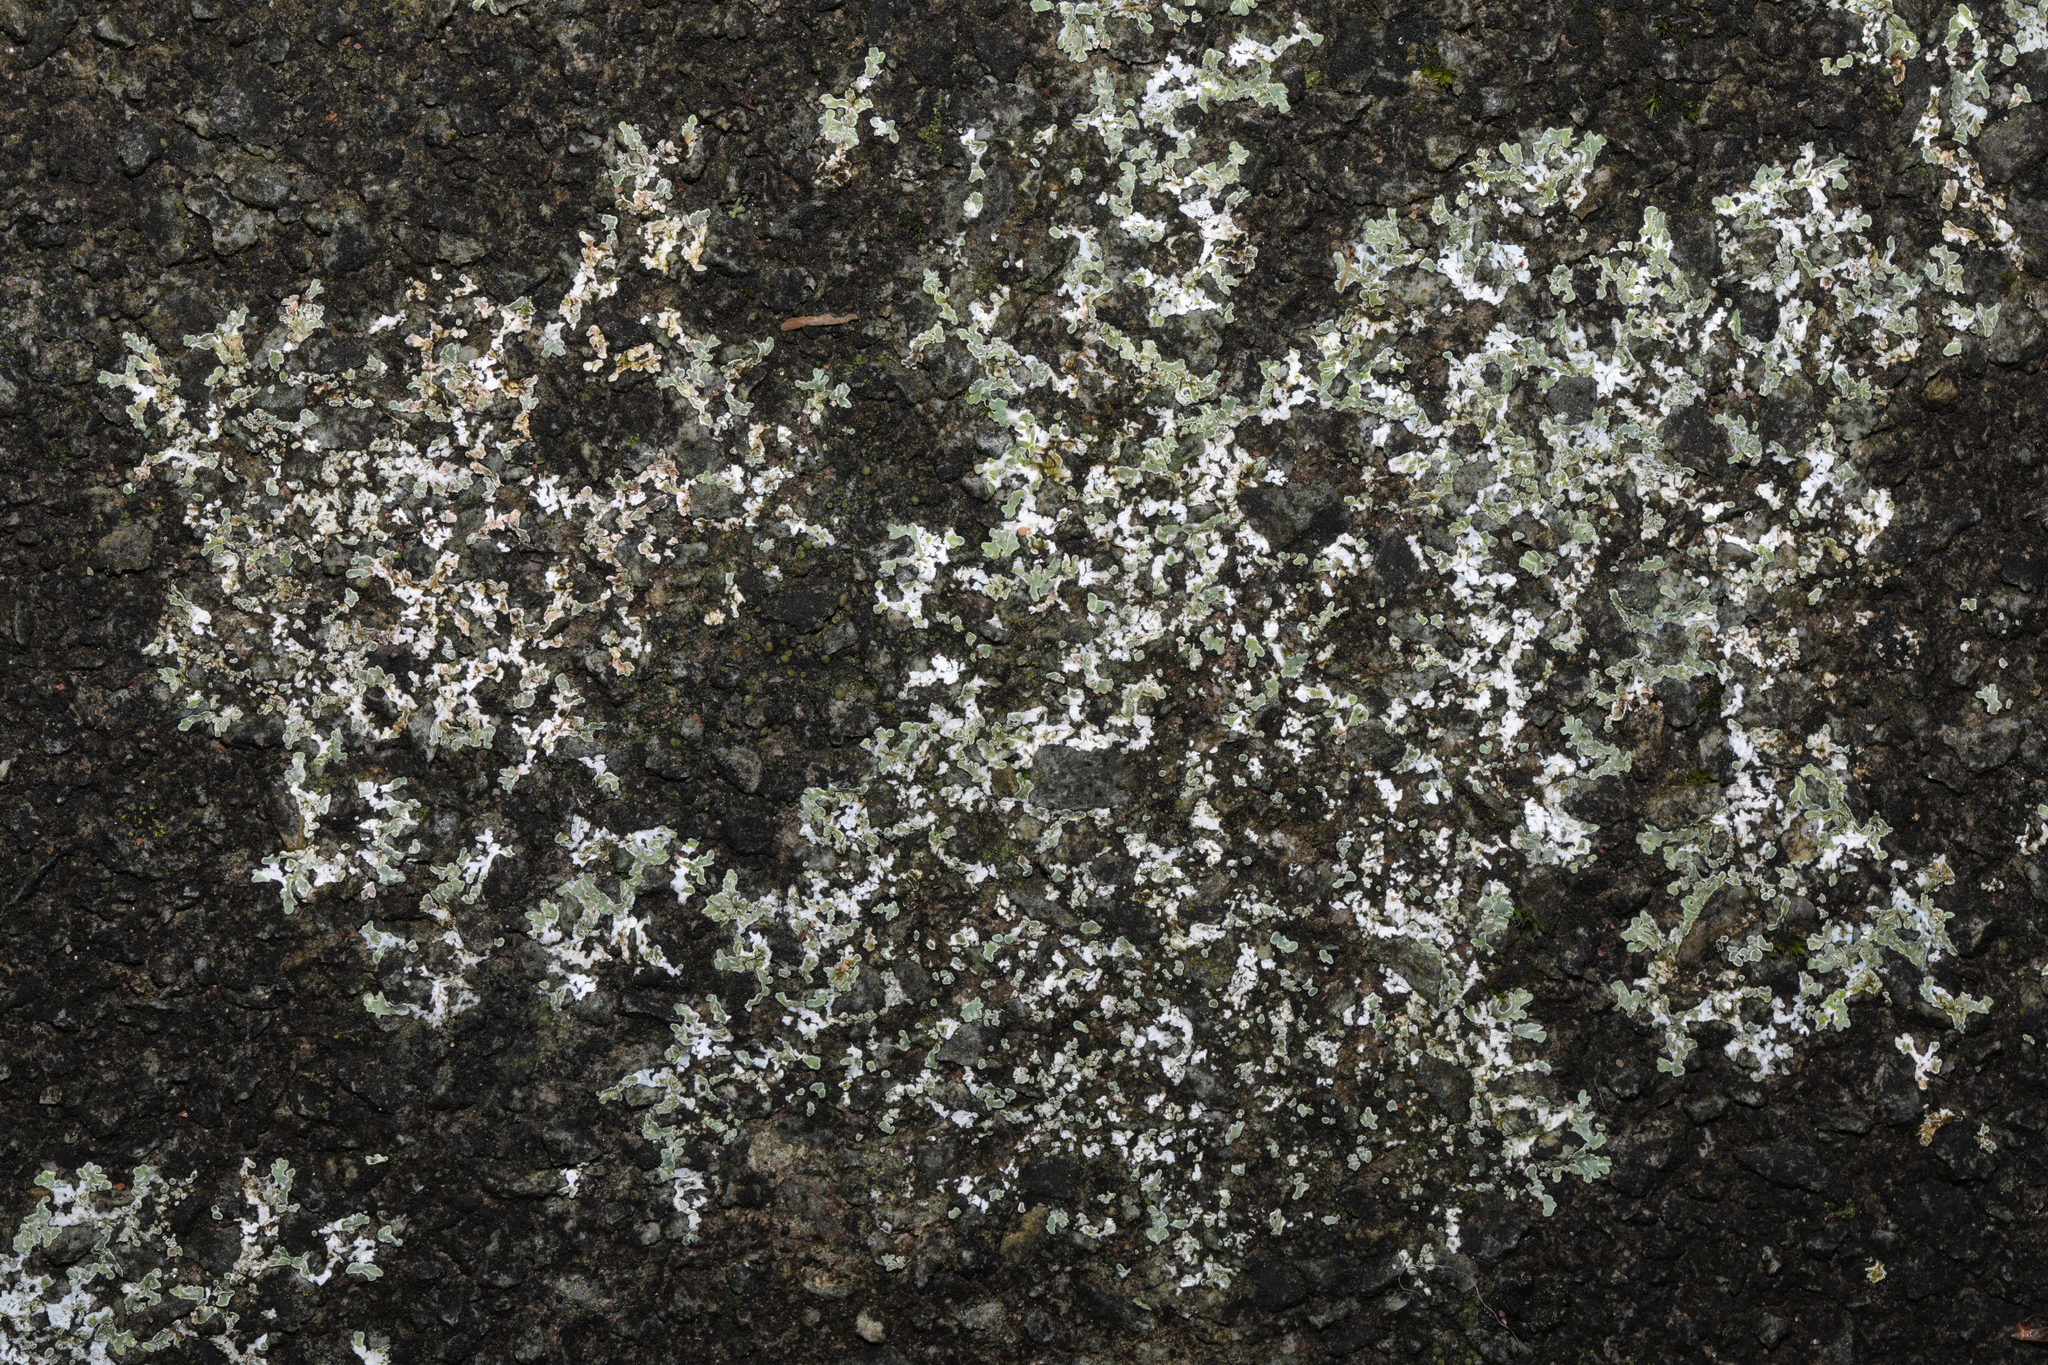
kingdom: Fungi
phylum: Ascomycota
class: Lecanoromycetes
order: Lecanorales
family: Lecanoraceae
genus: Protoparmeliopsis
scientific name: Protoparmeliopsis muralis
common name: Stonewall rim lichen
